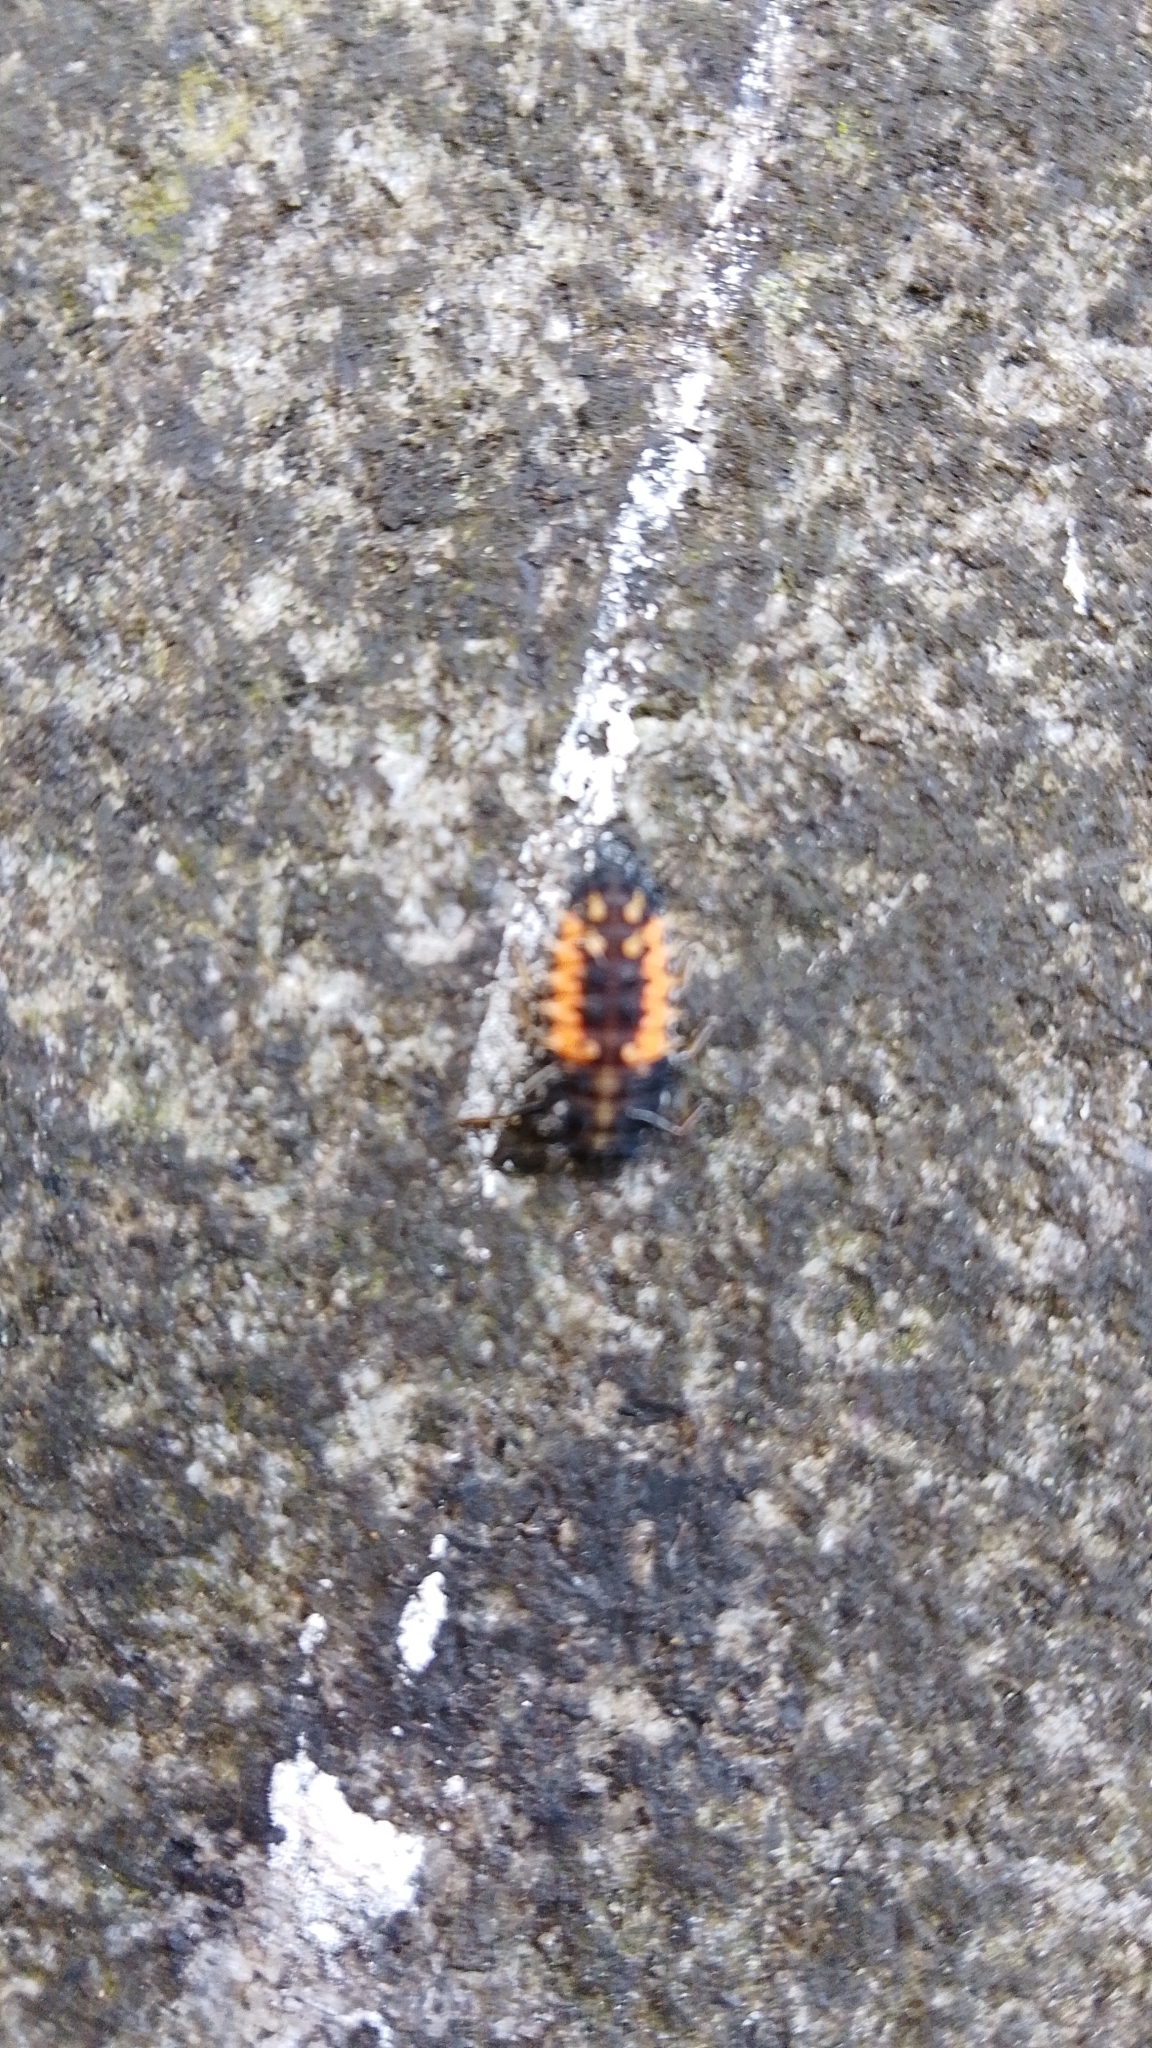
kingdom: Animalia
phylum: Arthropoda
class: Insecta
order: Coleoptera
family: Coccinellidae
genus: Harmonia
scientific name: Harmonia axyridis
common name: Harlequin ladybird
